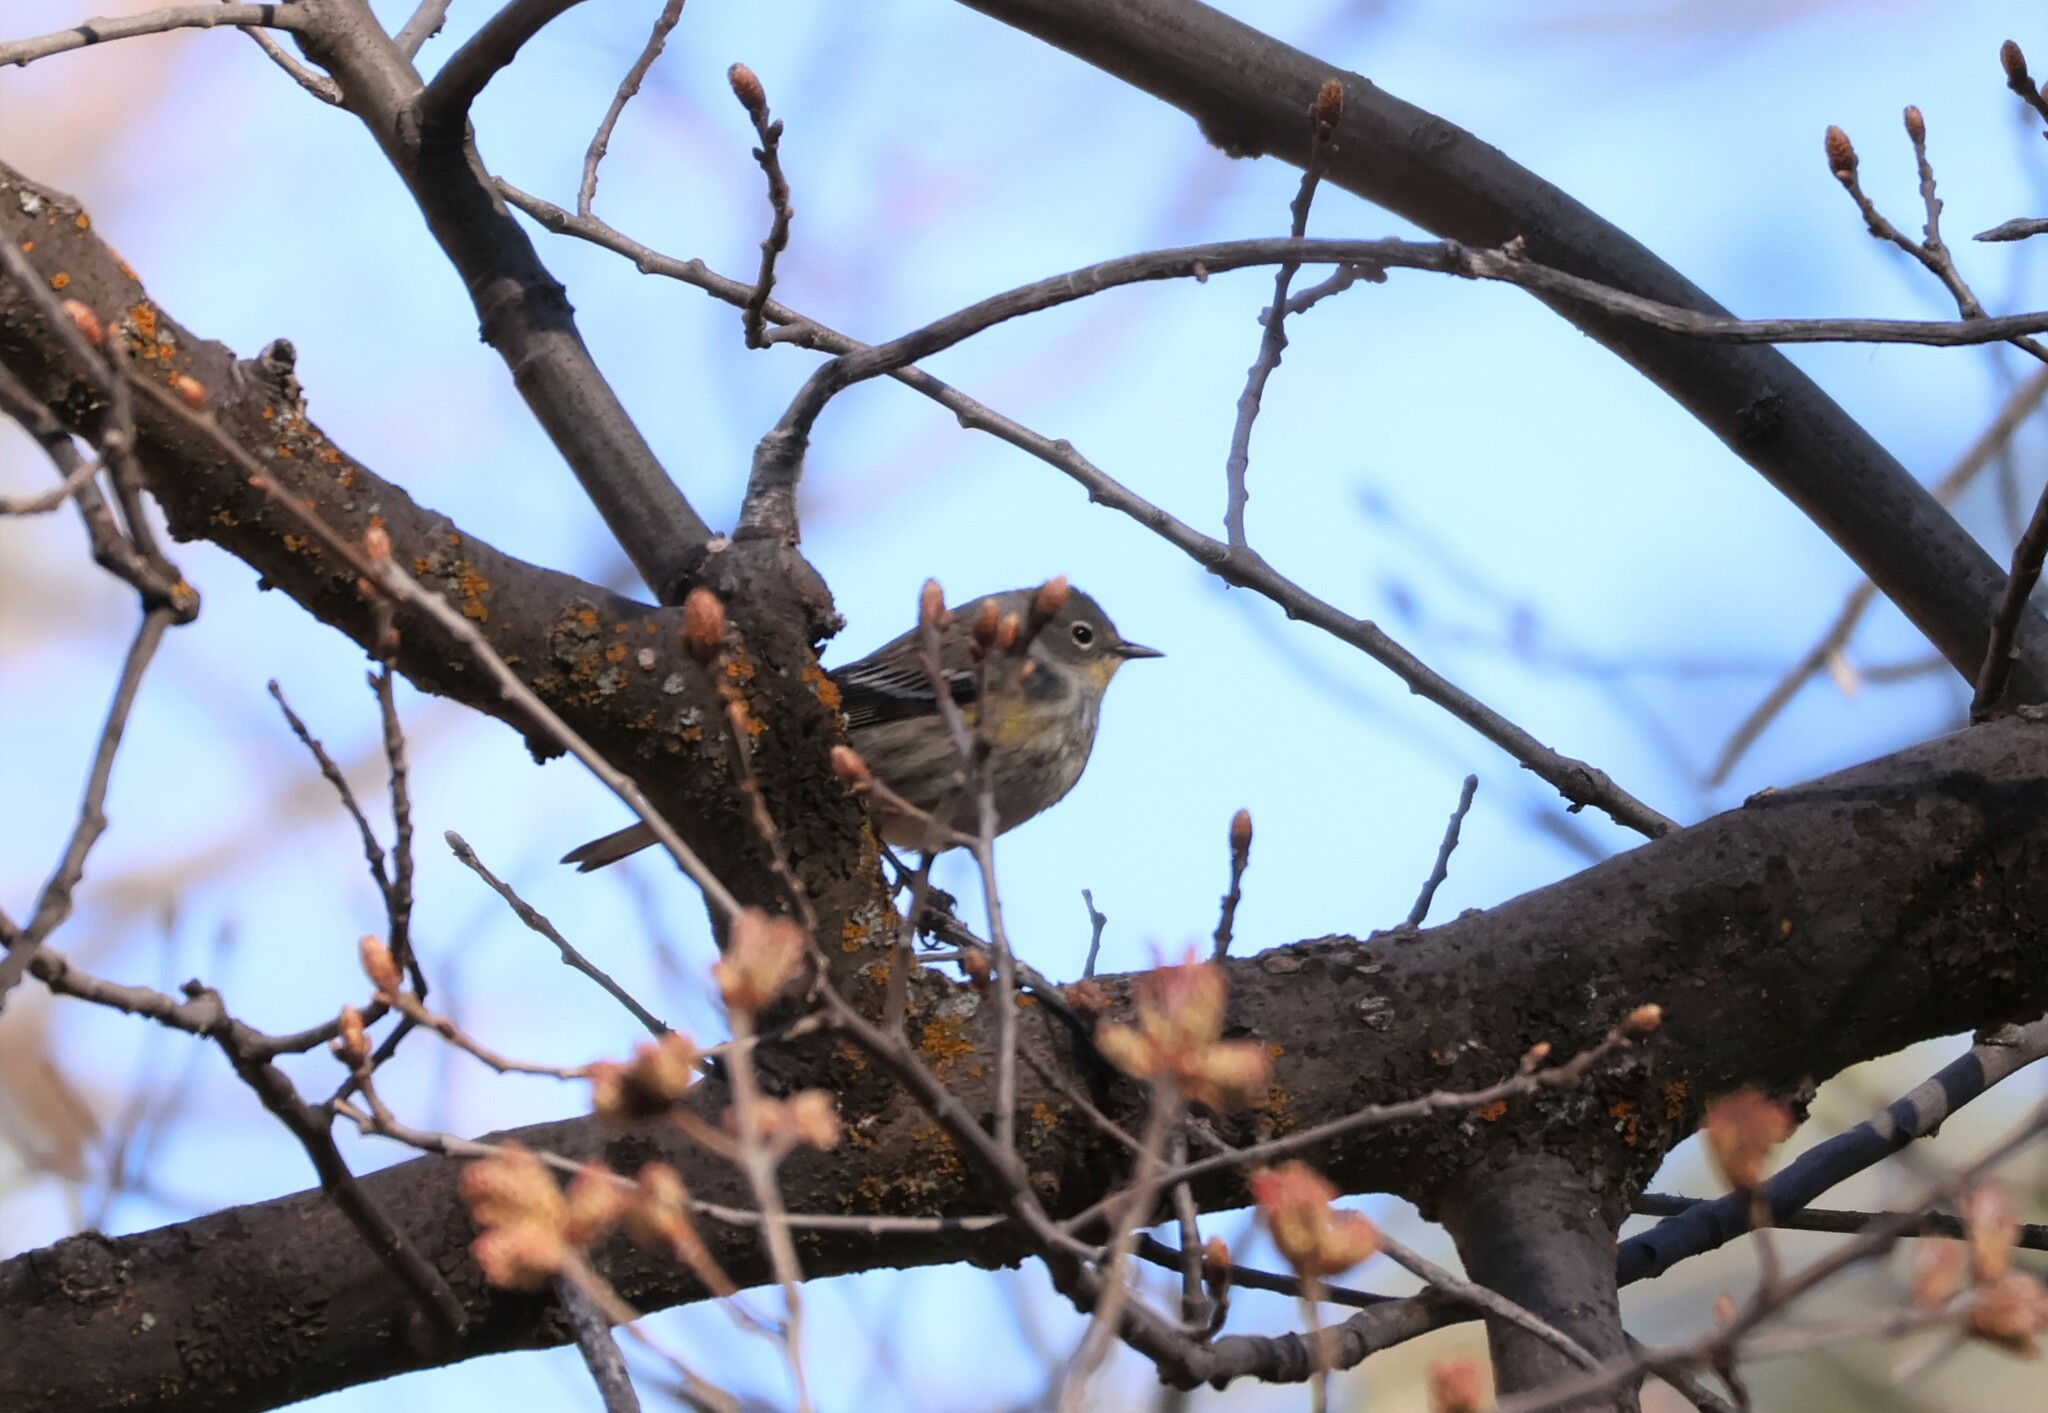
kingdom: Animalia
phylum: Chordata
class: Aves
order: Passeriformes
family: Parulidae
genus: Setophaga
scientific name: Setophaga coronata
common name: Myrtle warbler
